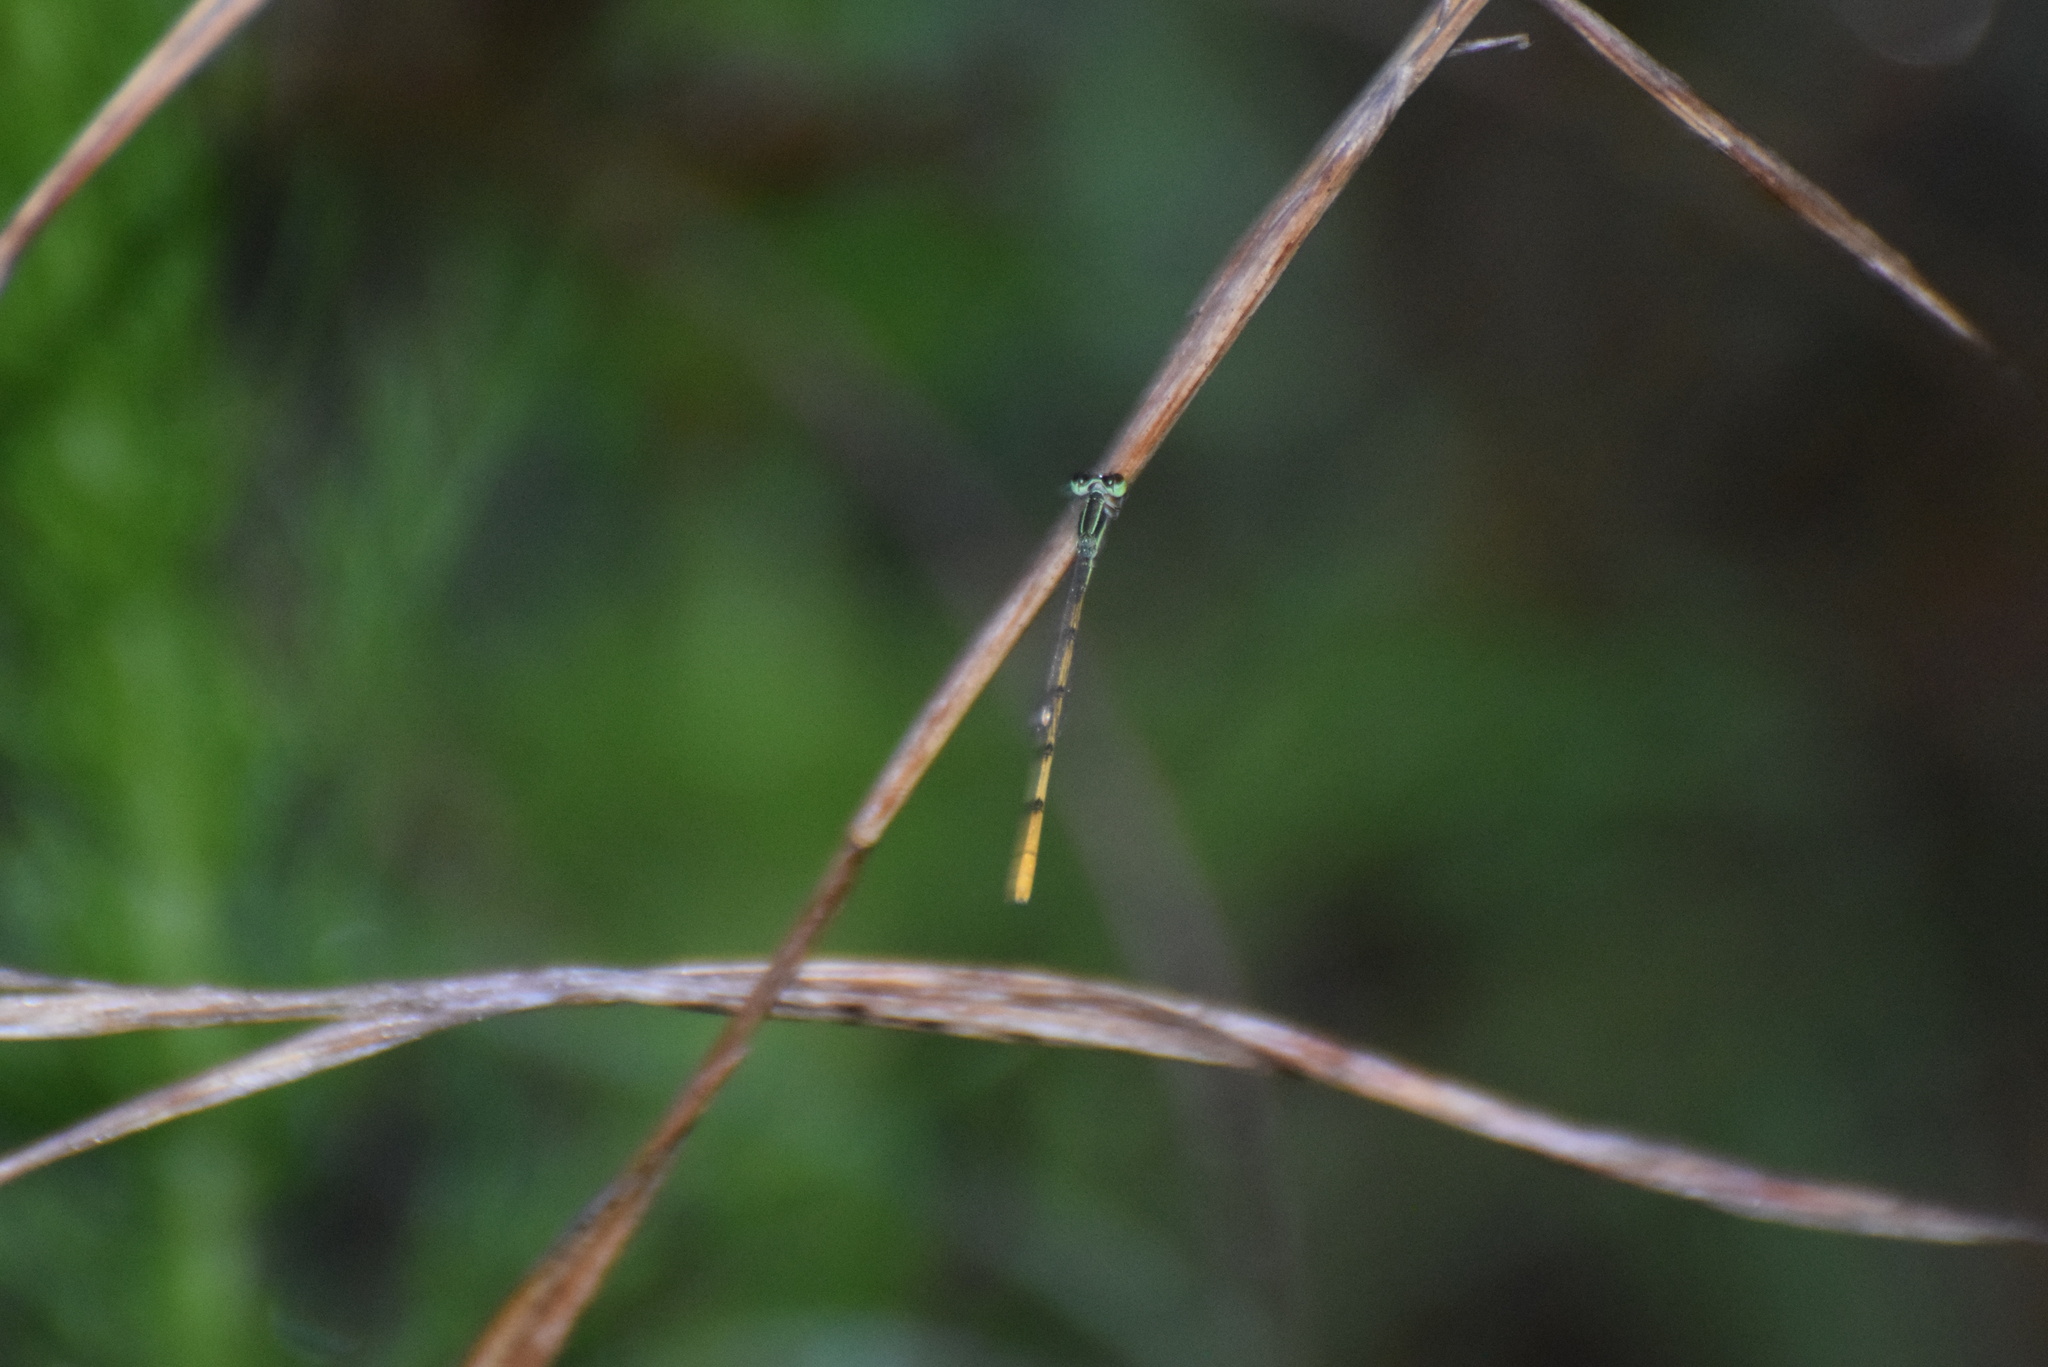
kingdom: Animalia
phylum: Arthropoda
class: Insecta
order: Odonata
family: Coenagrionidae
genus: Ischnura
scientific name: Ischnura hastata
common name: Citrine forktail
